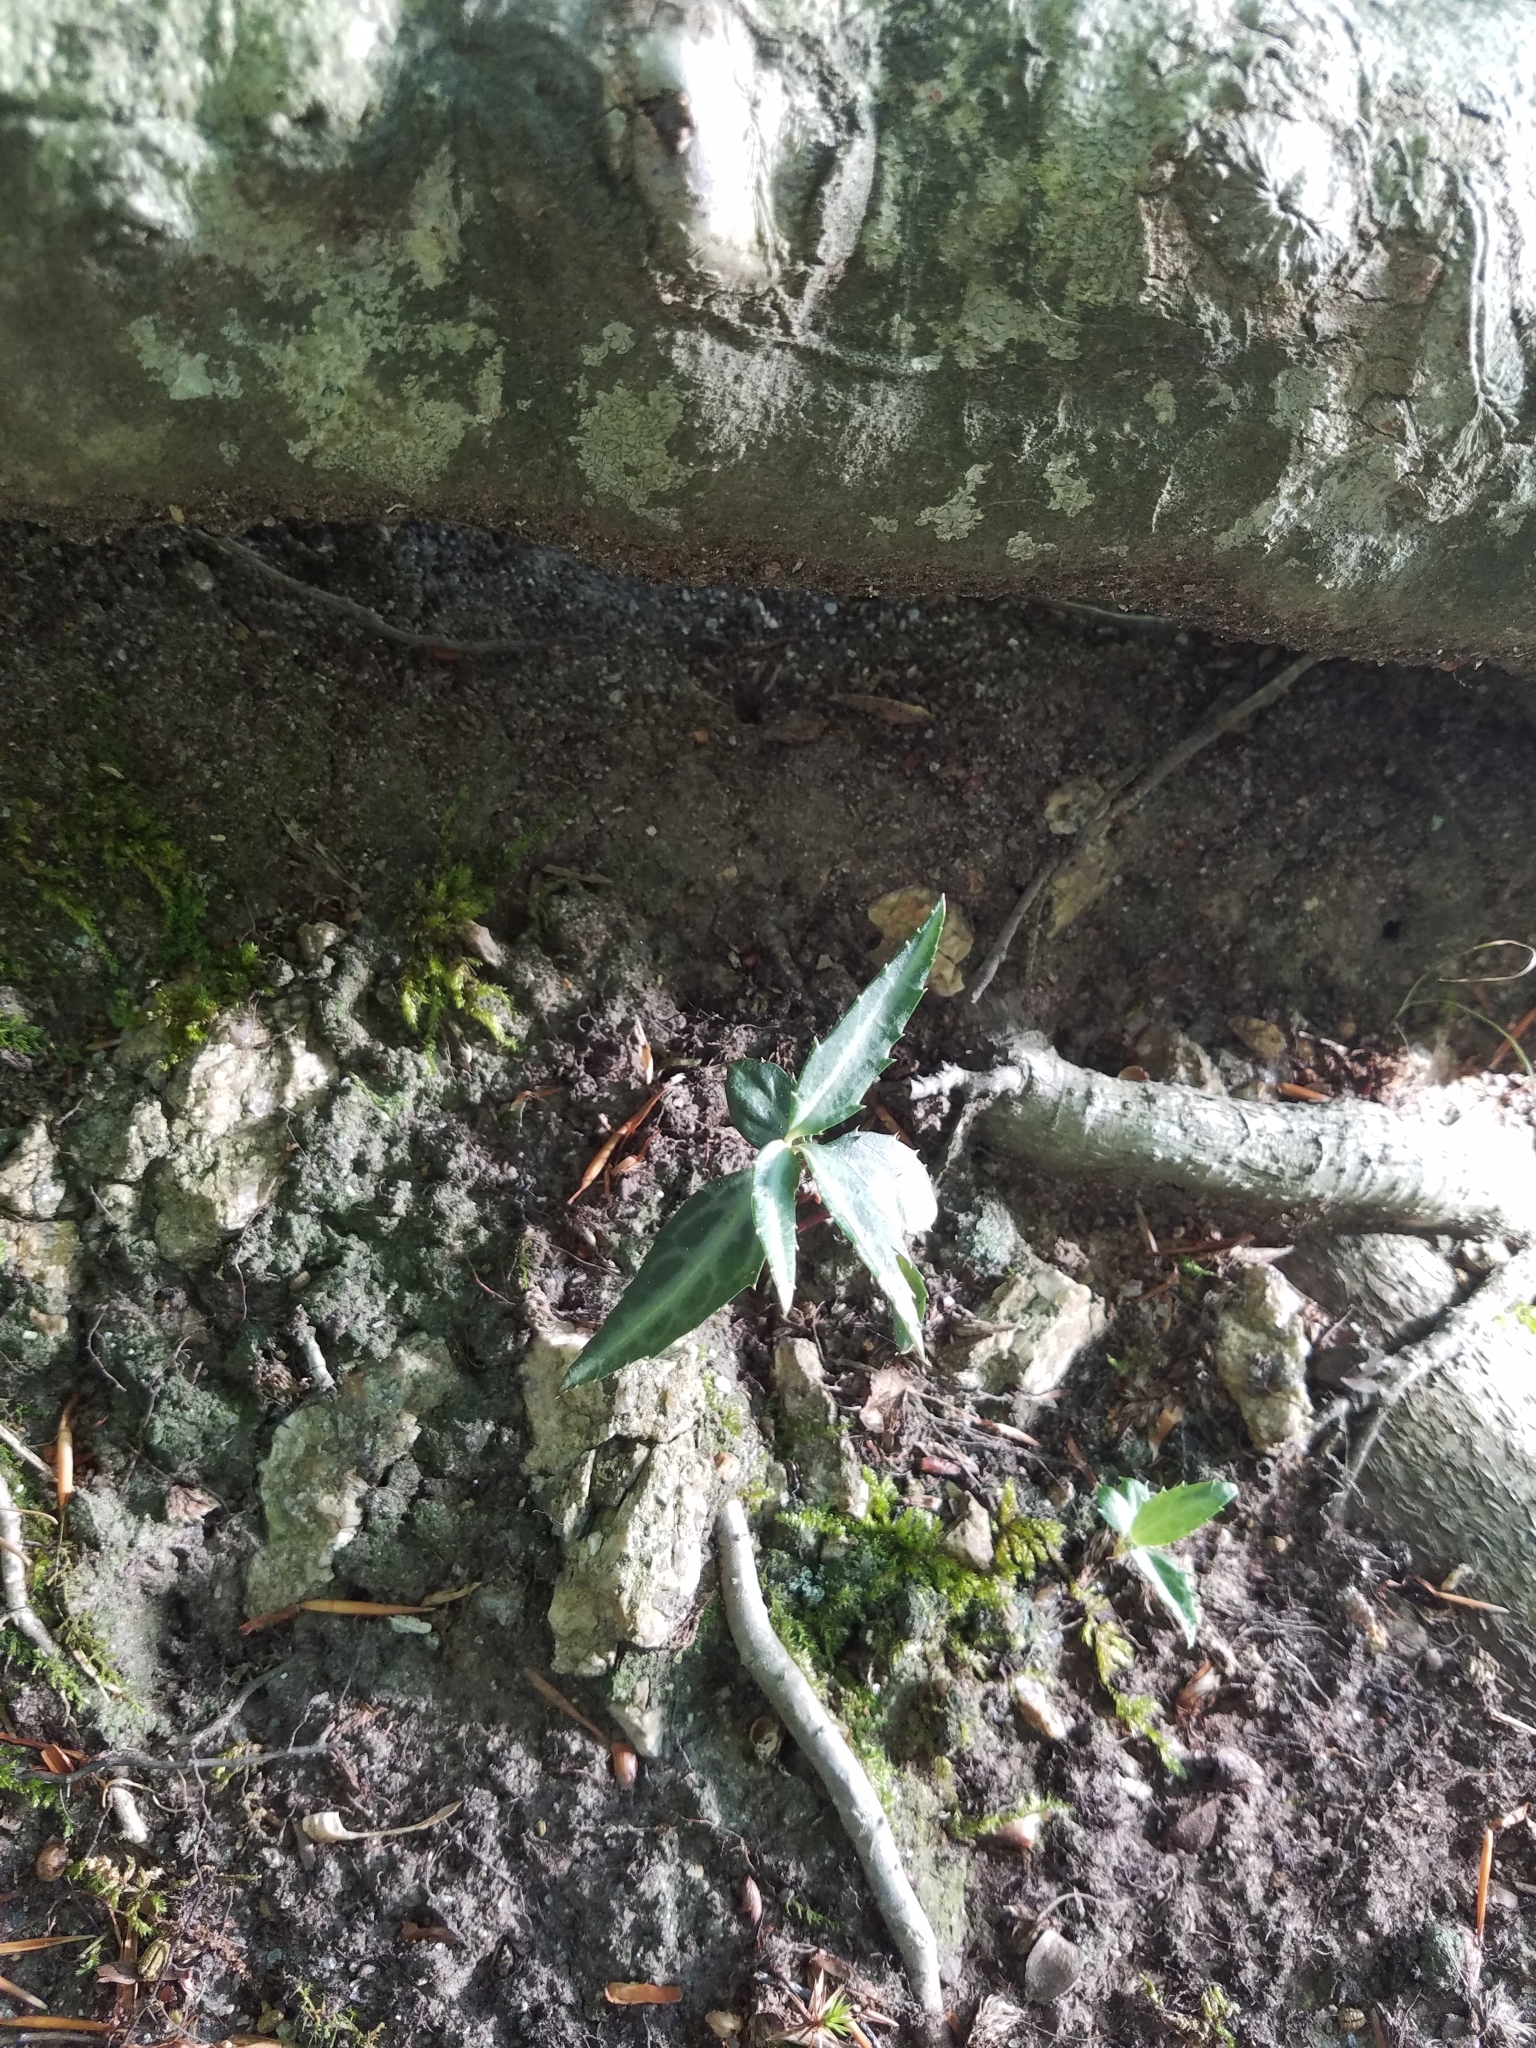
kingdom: Plantae
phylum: Tracheophyta
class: Magnoliopsida
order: Ericales
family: Ericaceae
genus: Chimaphila
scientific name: Chimaphila maculata
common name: Spotted pipsissewa
